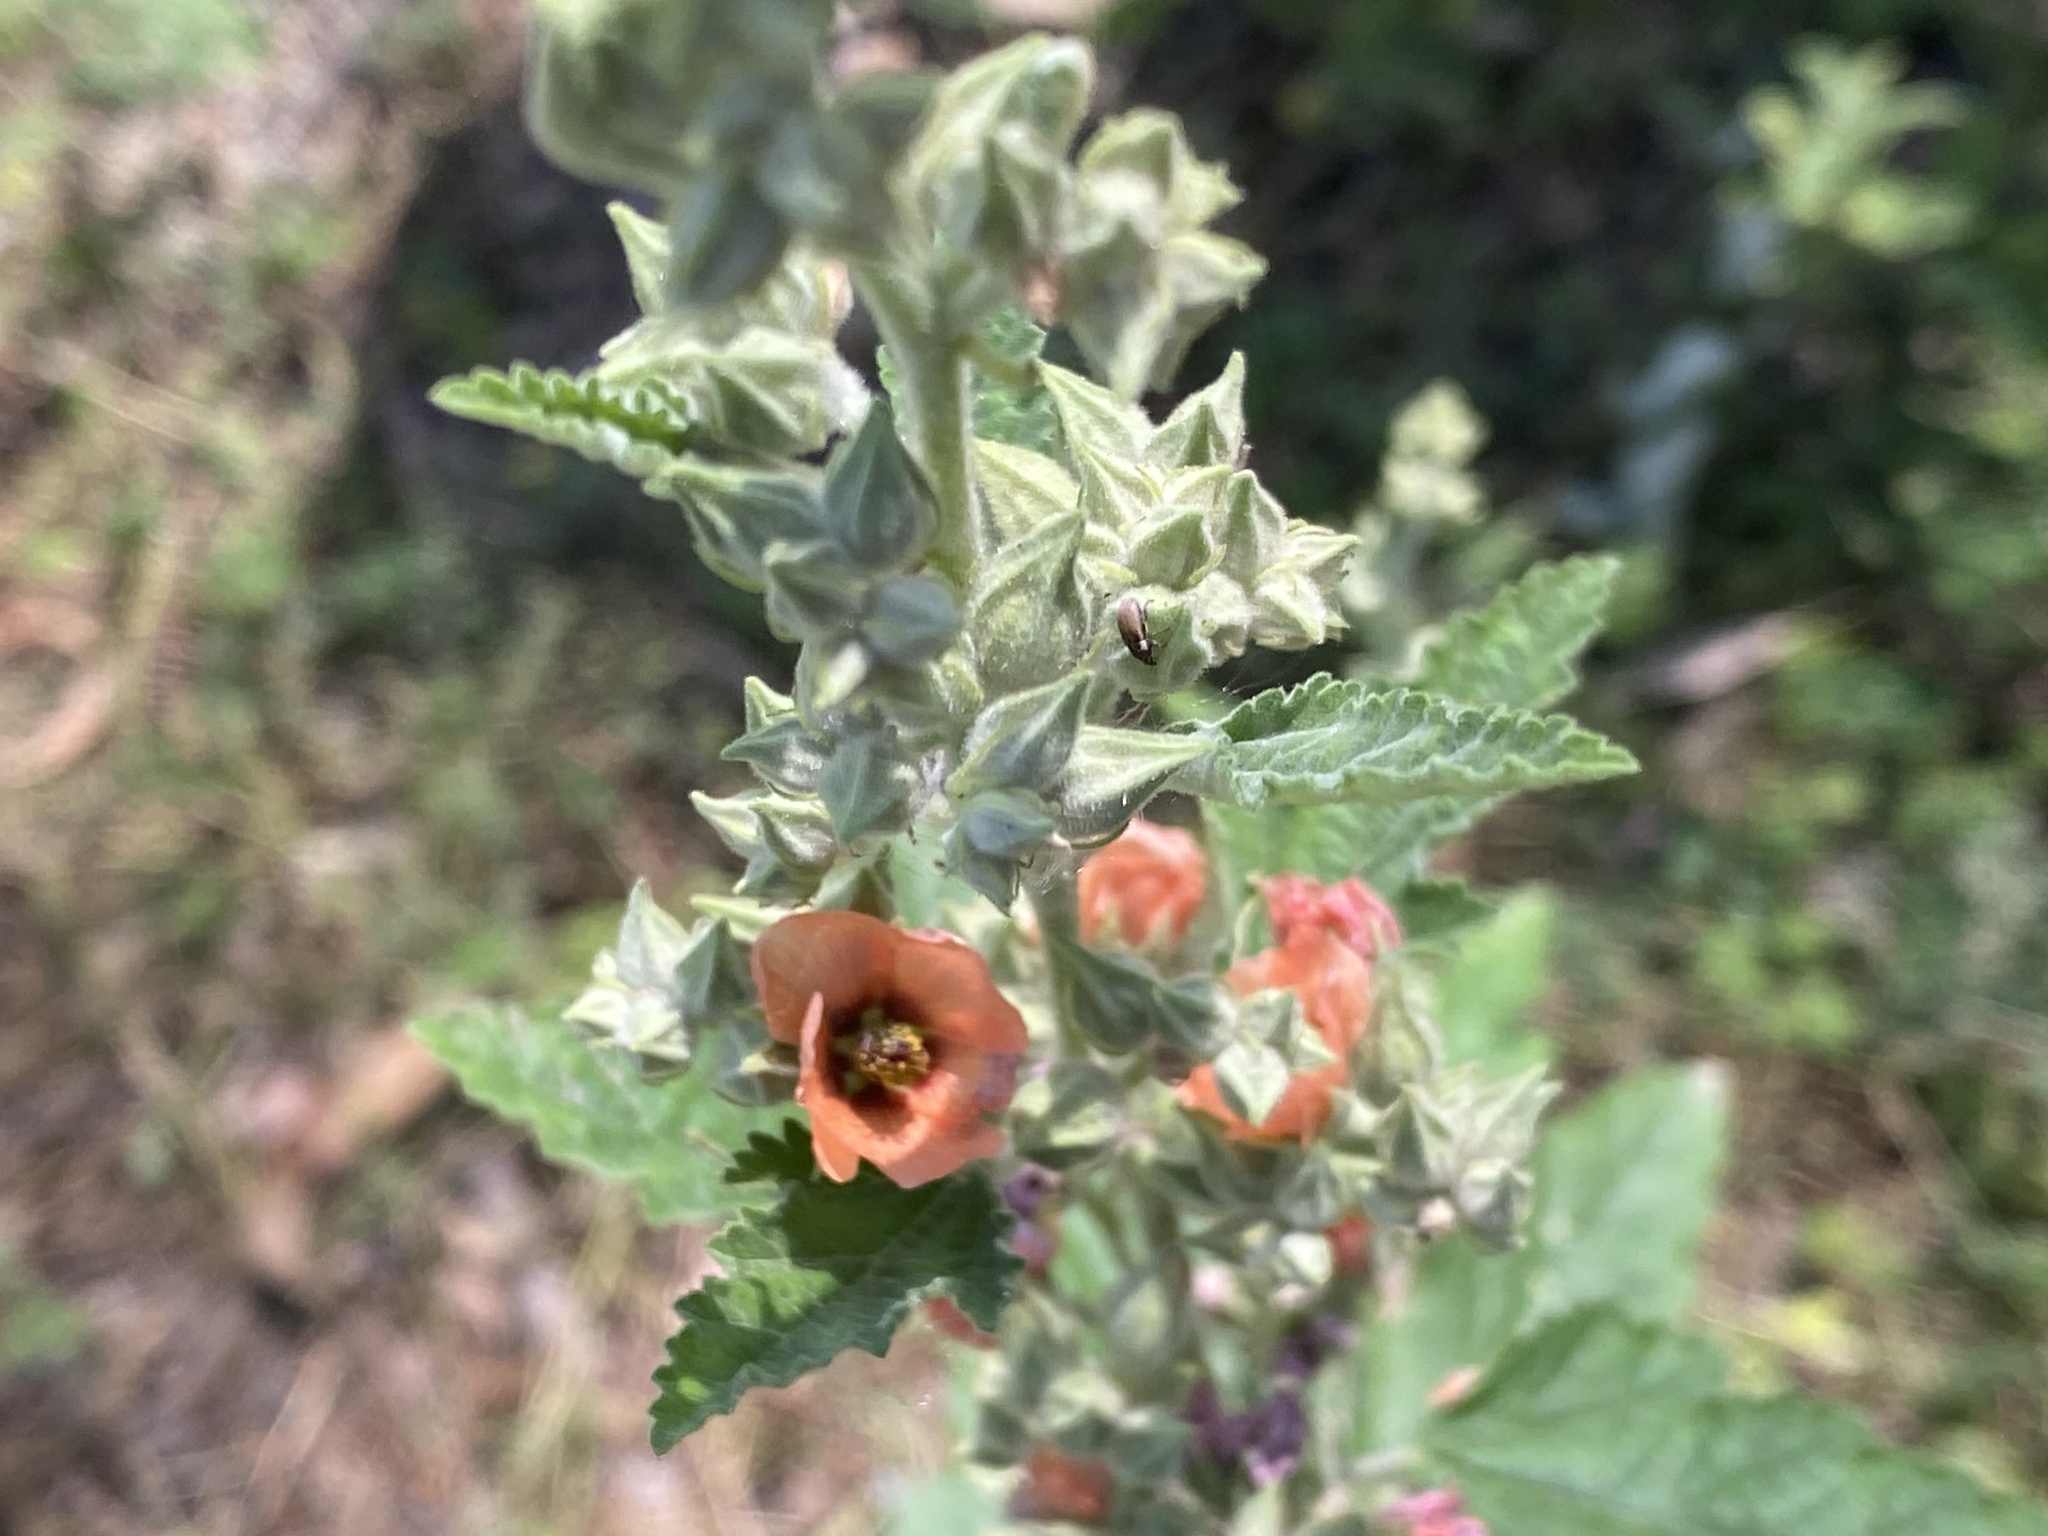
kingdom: Plantae
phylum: Tracheophyta
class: Magnoliopsida
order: Malvales
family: Malvaceae
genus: Sphaeralcea
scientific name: Sphaeralcea bonariensis
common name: Latin globemallow
